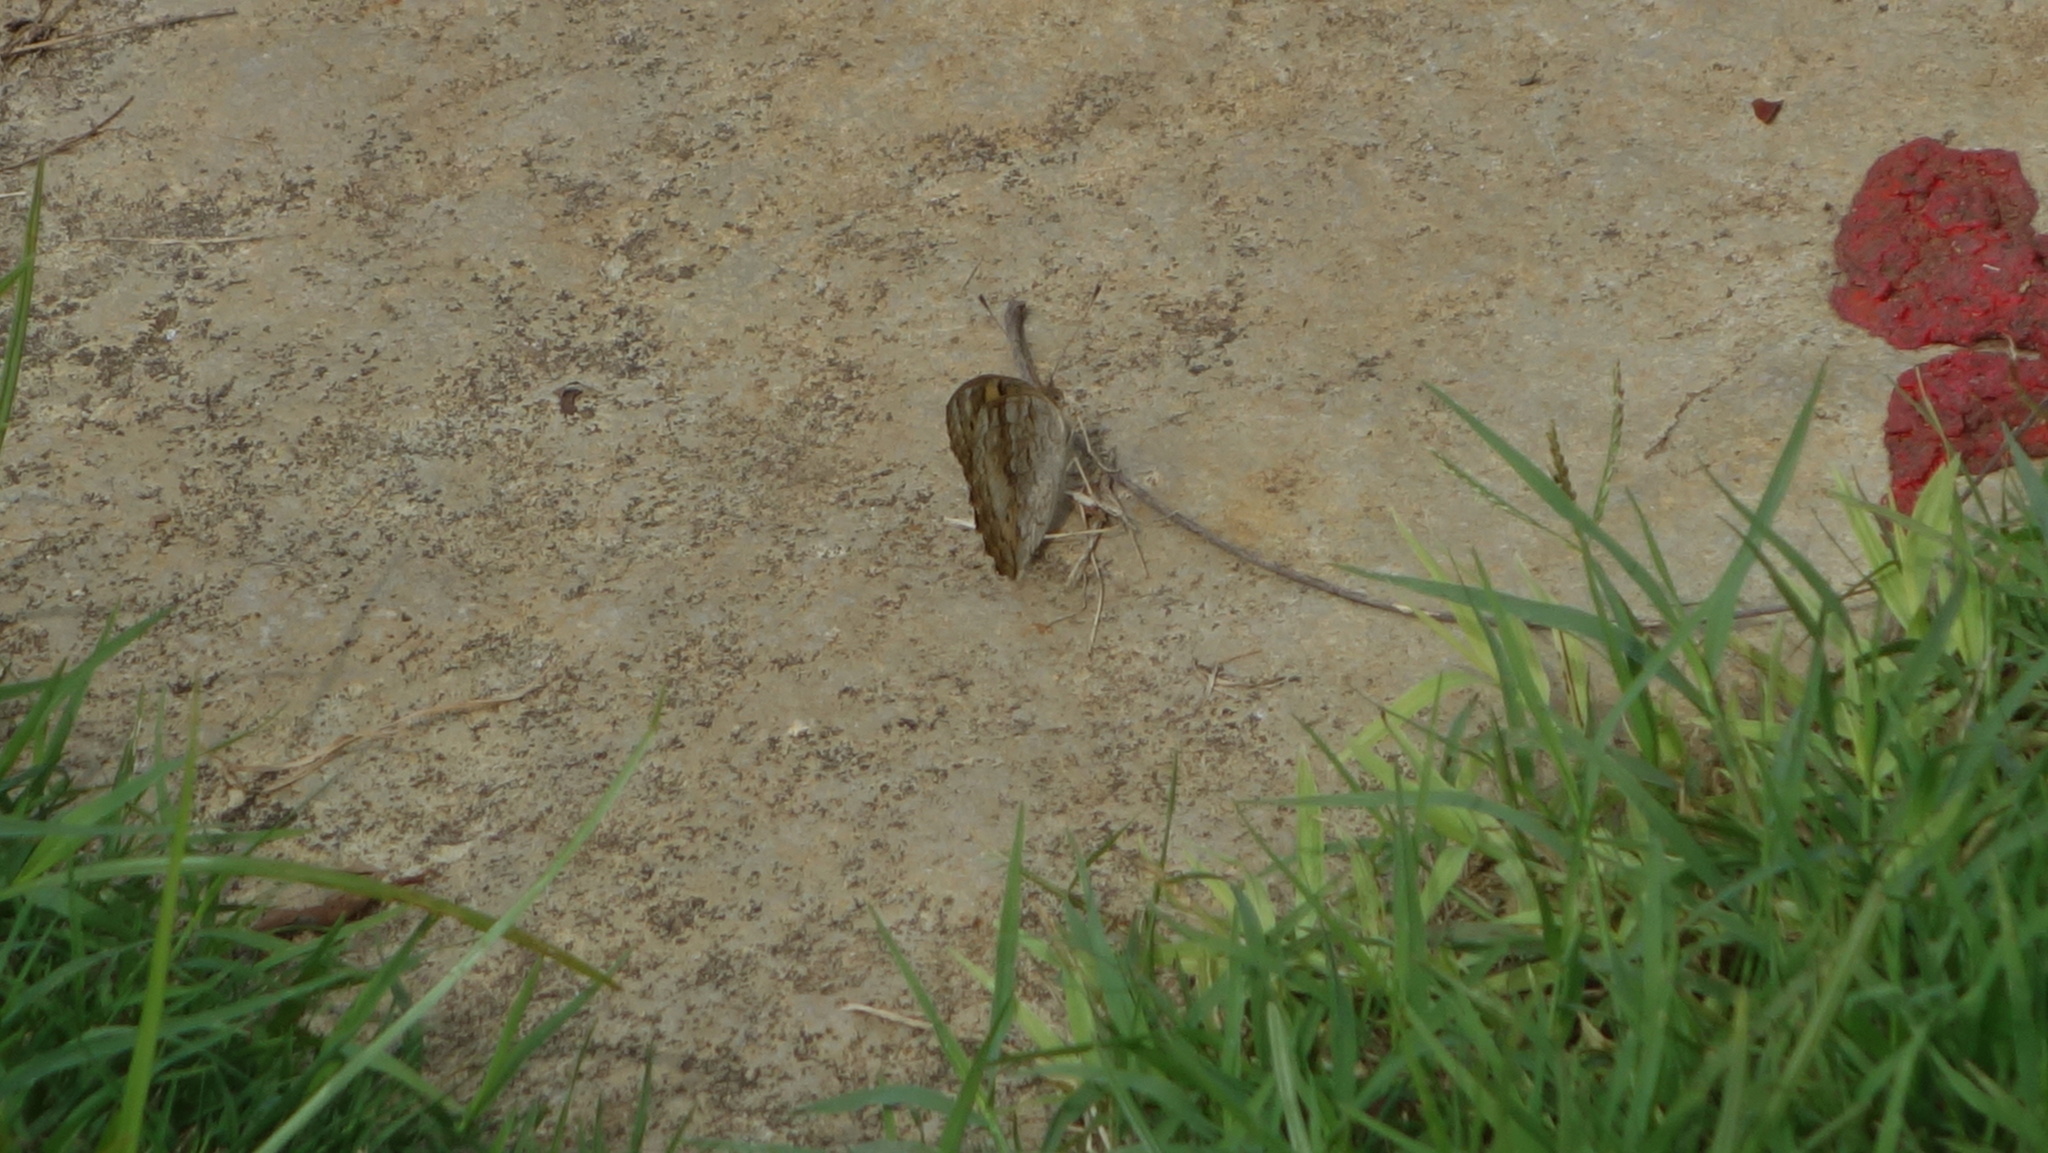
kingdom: Animalia
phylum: Arthropoda
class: Insecta
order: Lepidoptera
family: Nymphalidae
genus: Junonia
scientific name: Junonia hierta
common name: Yellow pansy
